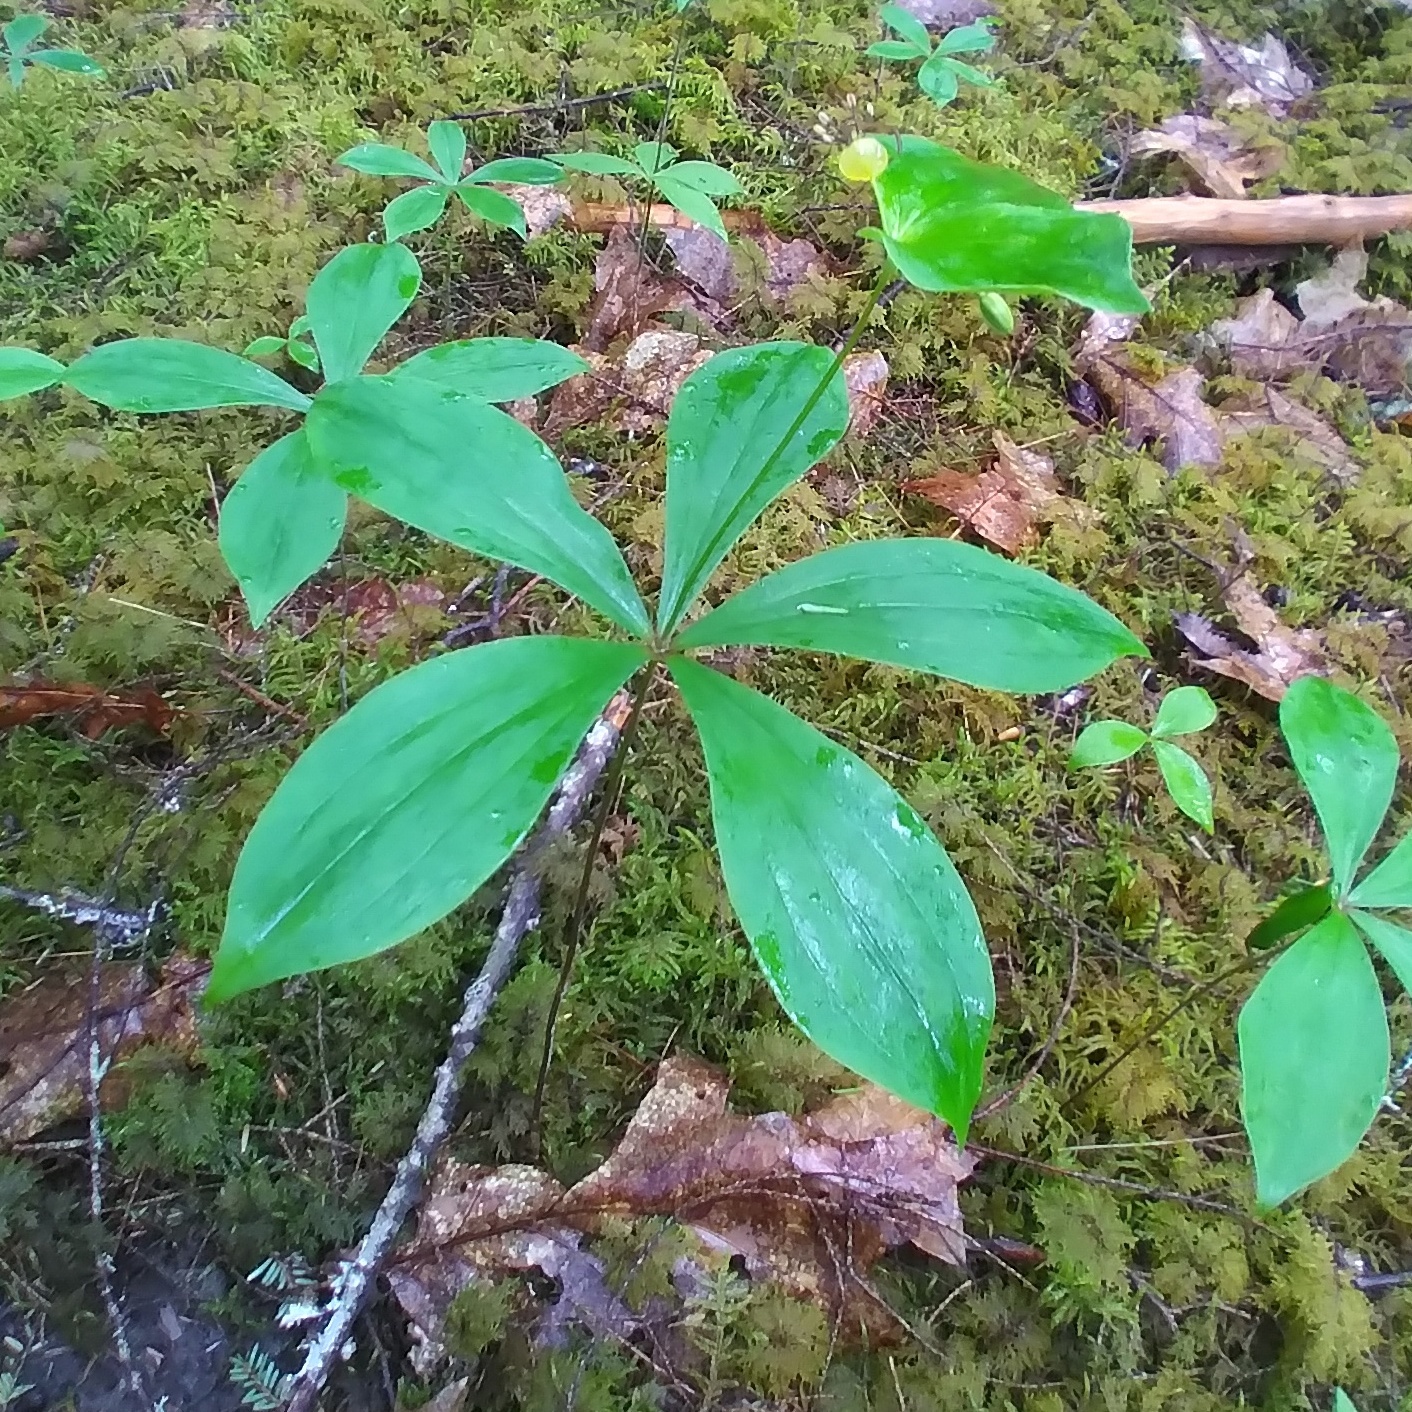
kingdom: Plantae
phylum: Tracheophyta
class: Liliopsida
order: Liliales
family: Liliaceae
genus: Medeola
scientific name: Medeola virginiana
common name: Indian cucumber-root
